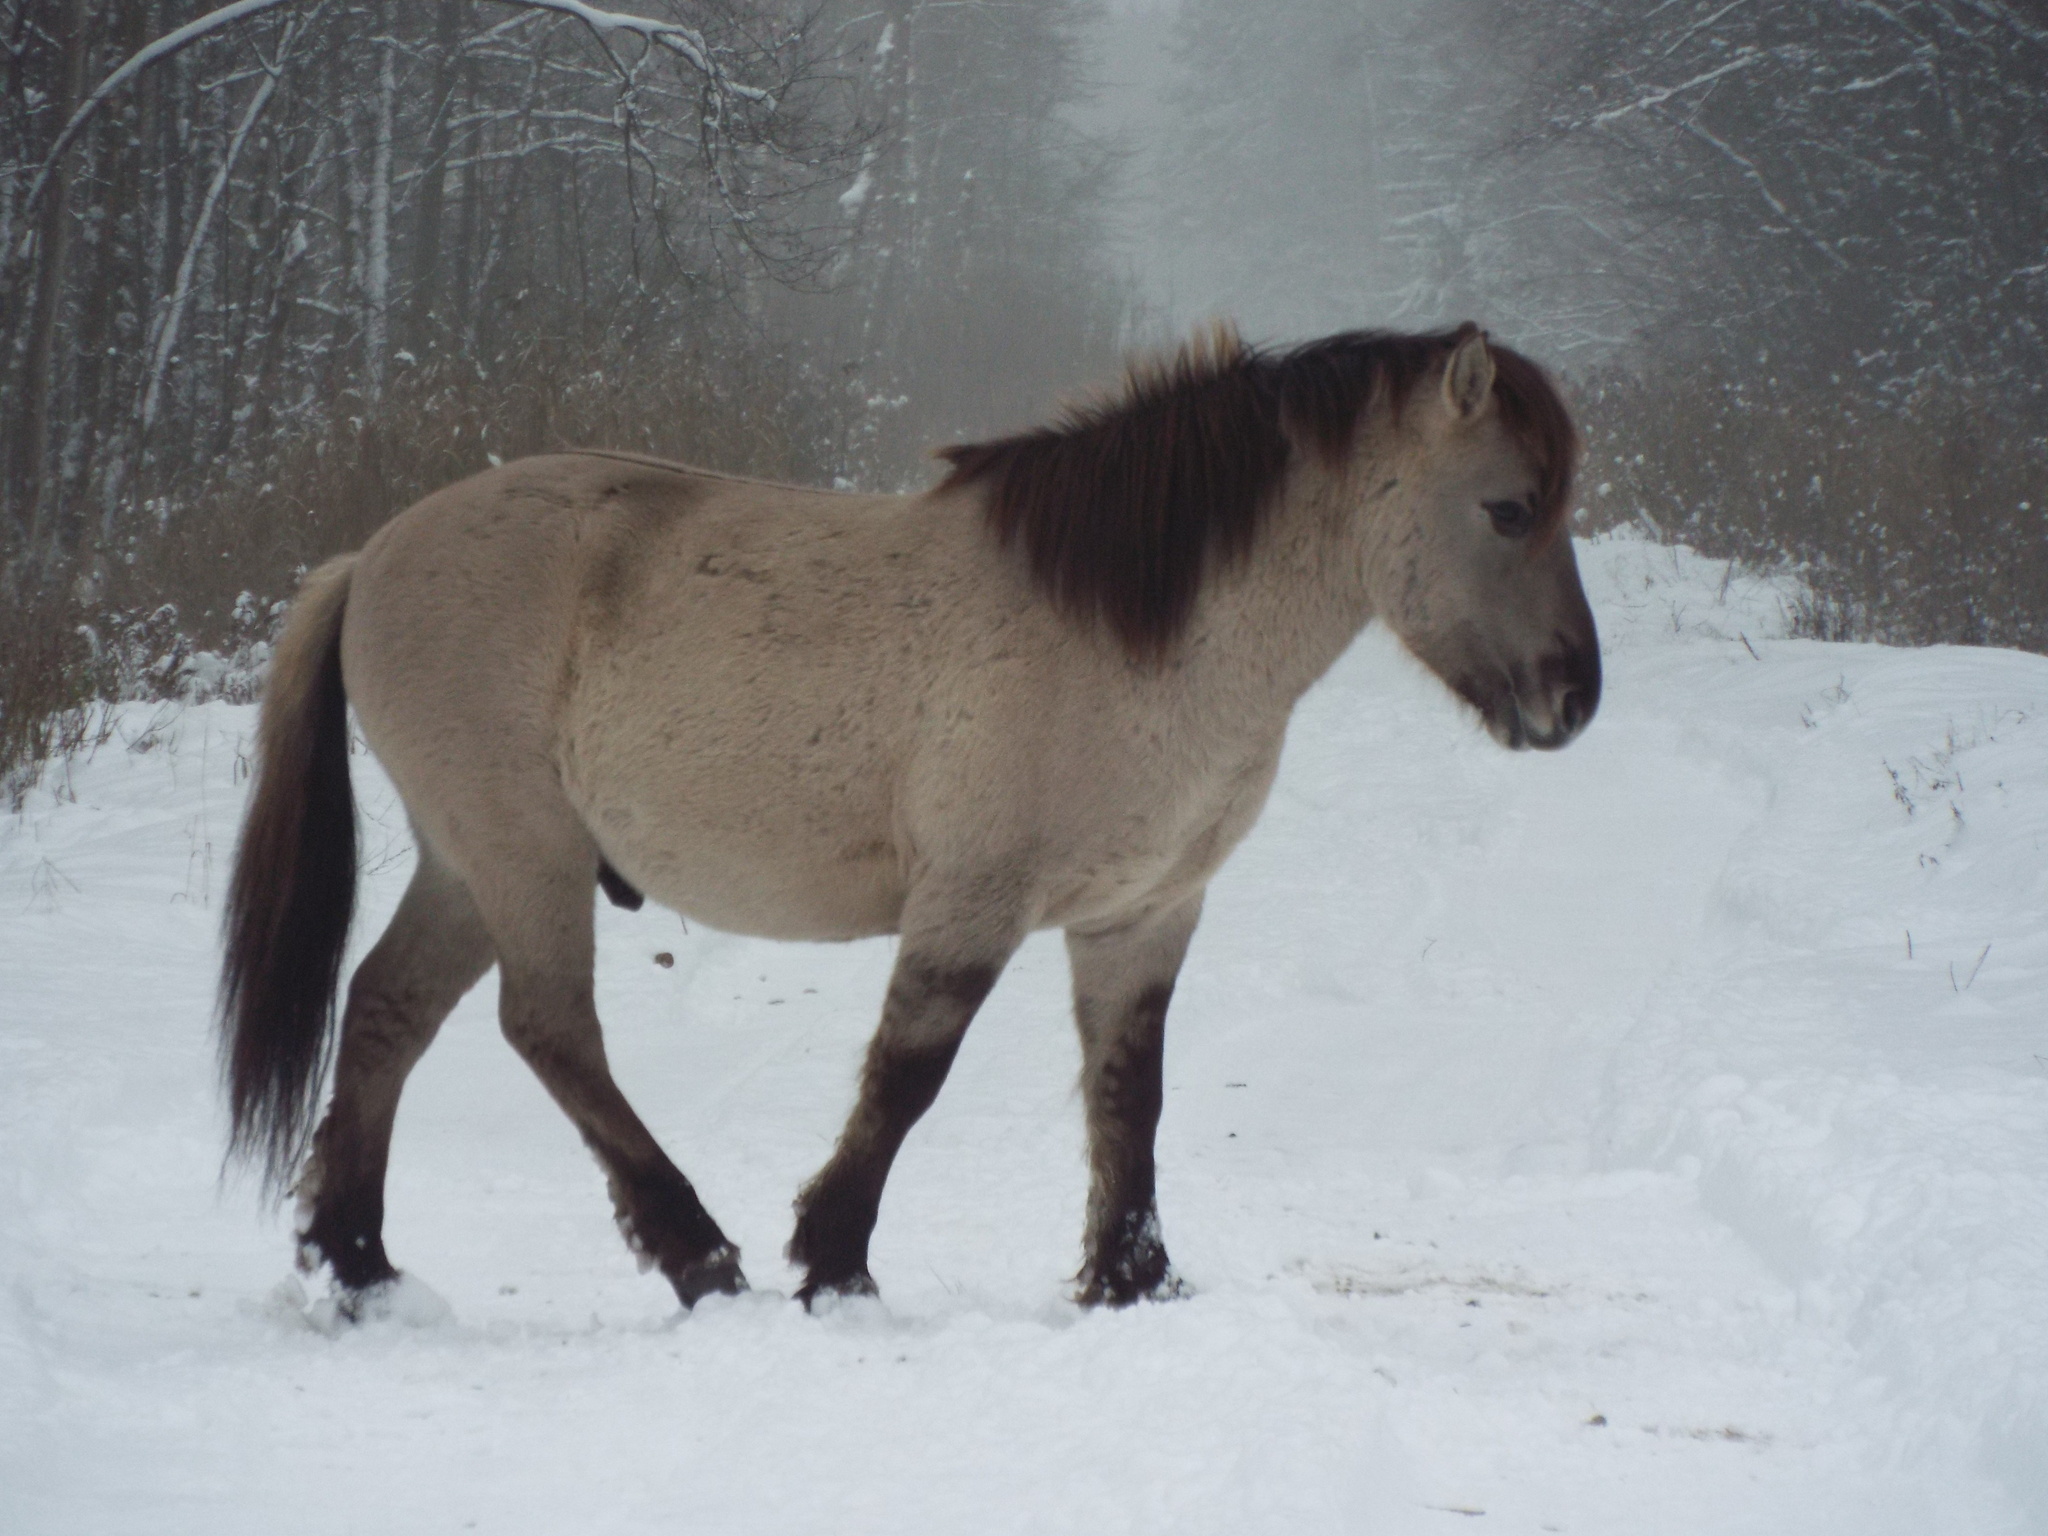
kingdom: Animalia
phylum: Chordata
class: Mammalia
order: Perissodactyla
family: Equidae
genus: Equus
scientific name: Equus caballus
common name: Horse
